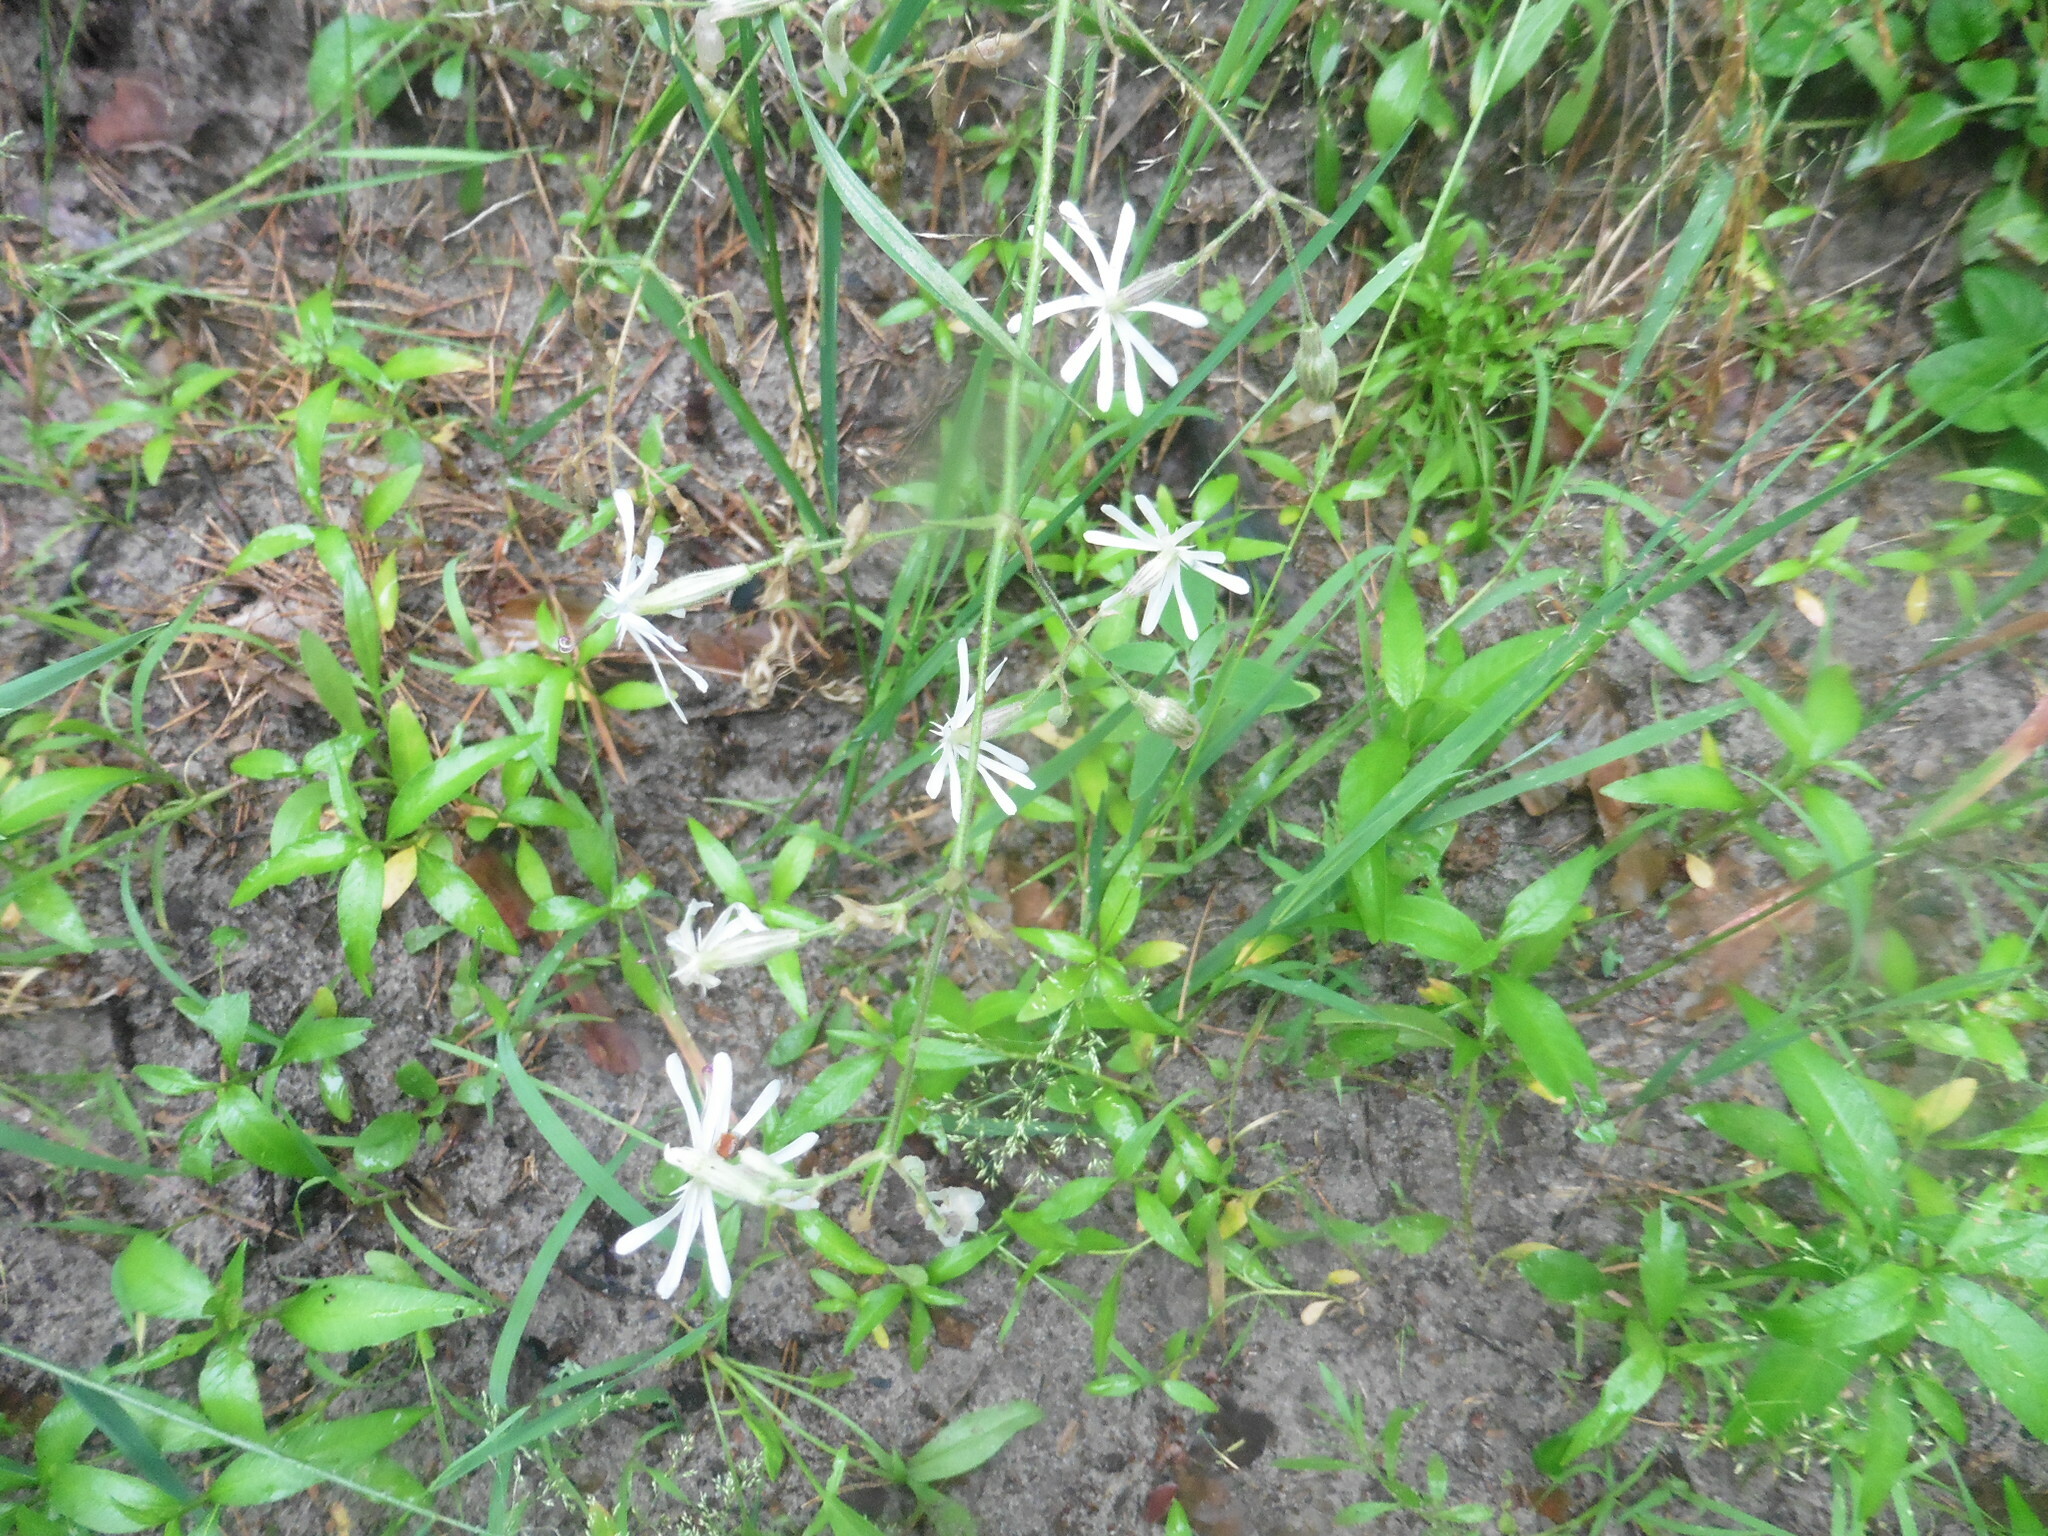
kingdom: Plantae
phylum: Tracheophyta
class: Magnoliopsida
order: Caryophyllales
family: Caryophyllaceae
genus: Silene
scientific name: Silene nutans
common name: Nottingham catchfly
